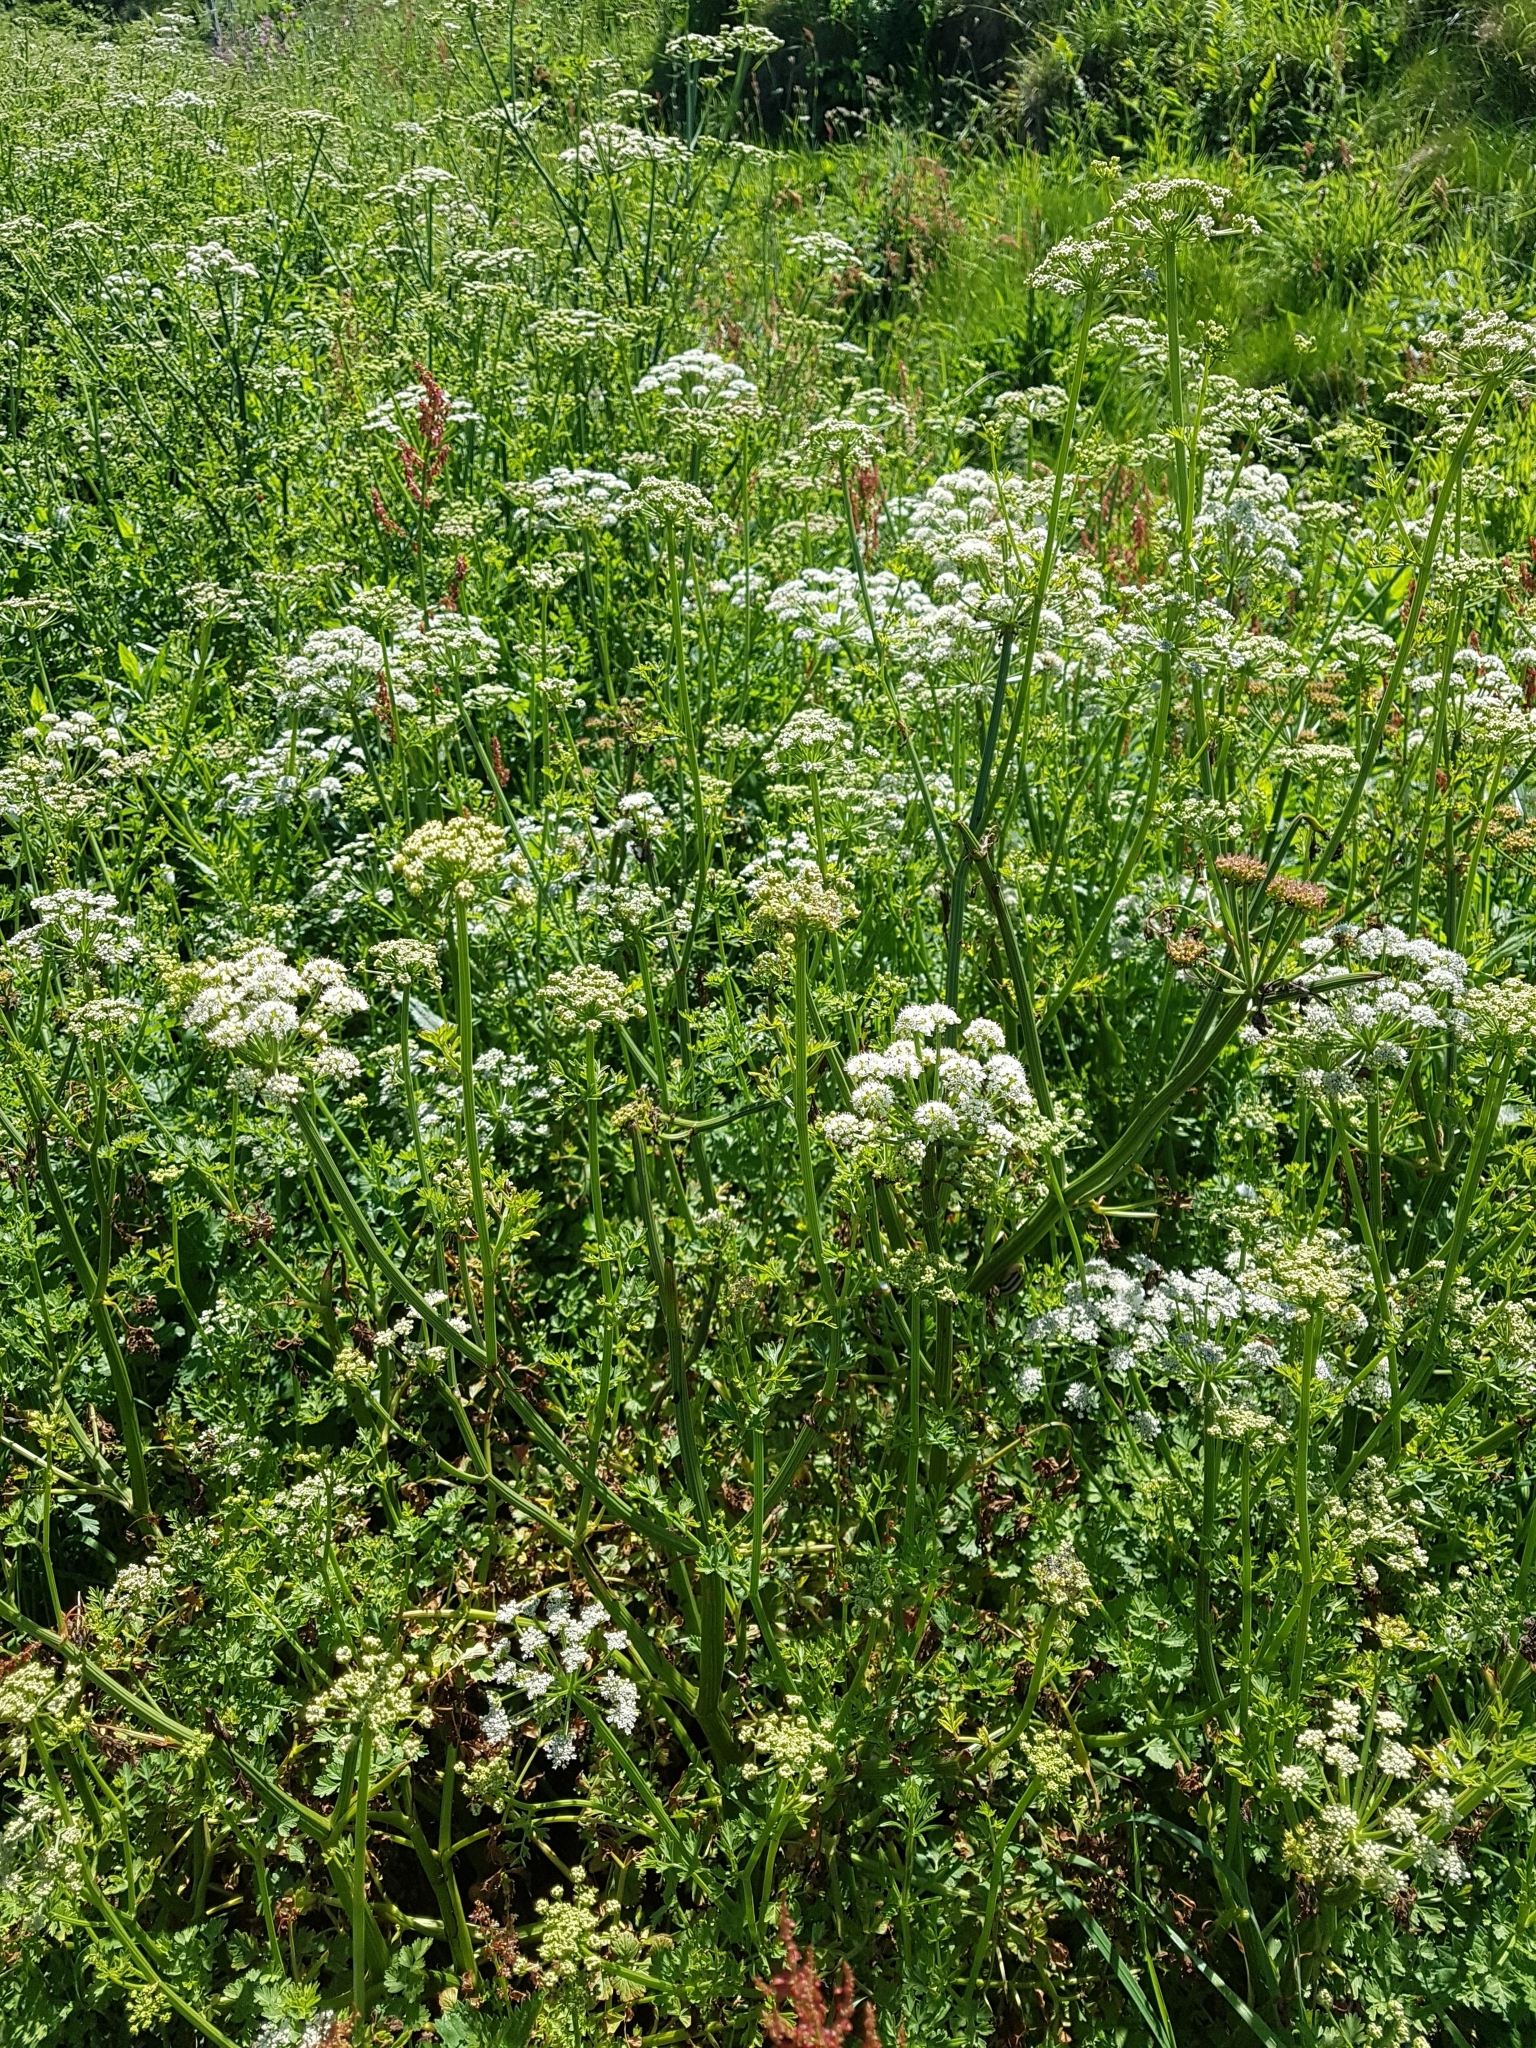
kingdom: Plantae
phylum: Tracheophyta
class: Magnoliopsida
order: Apiales
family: Apiaceae
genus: Oenanthe
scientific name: Oenanthe crocata
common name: Hemlock water-dropwort
